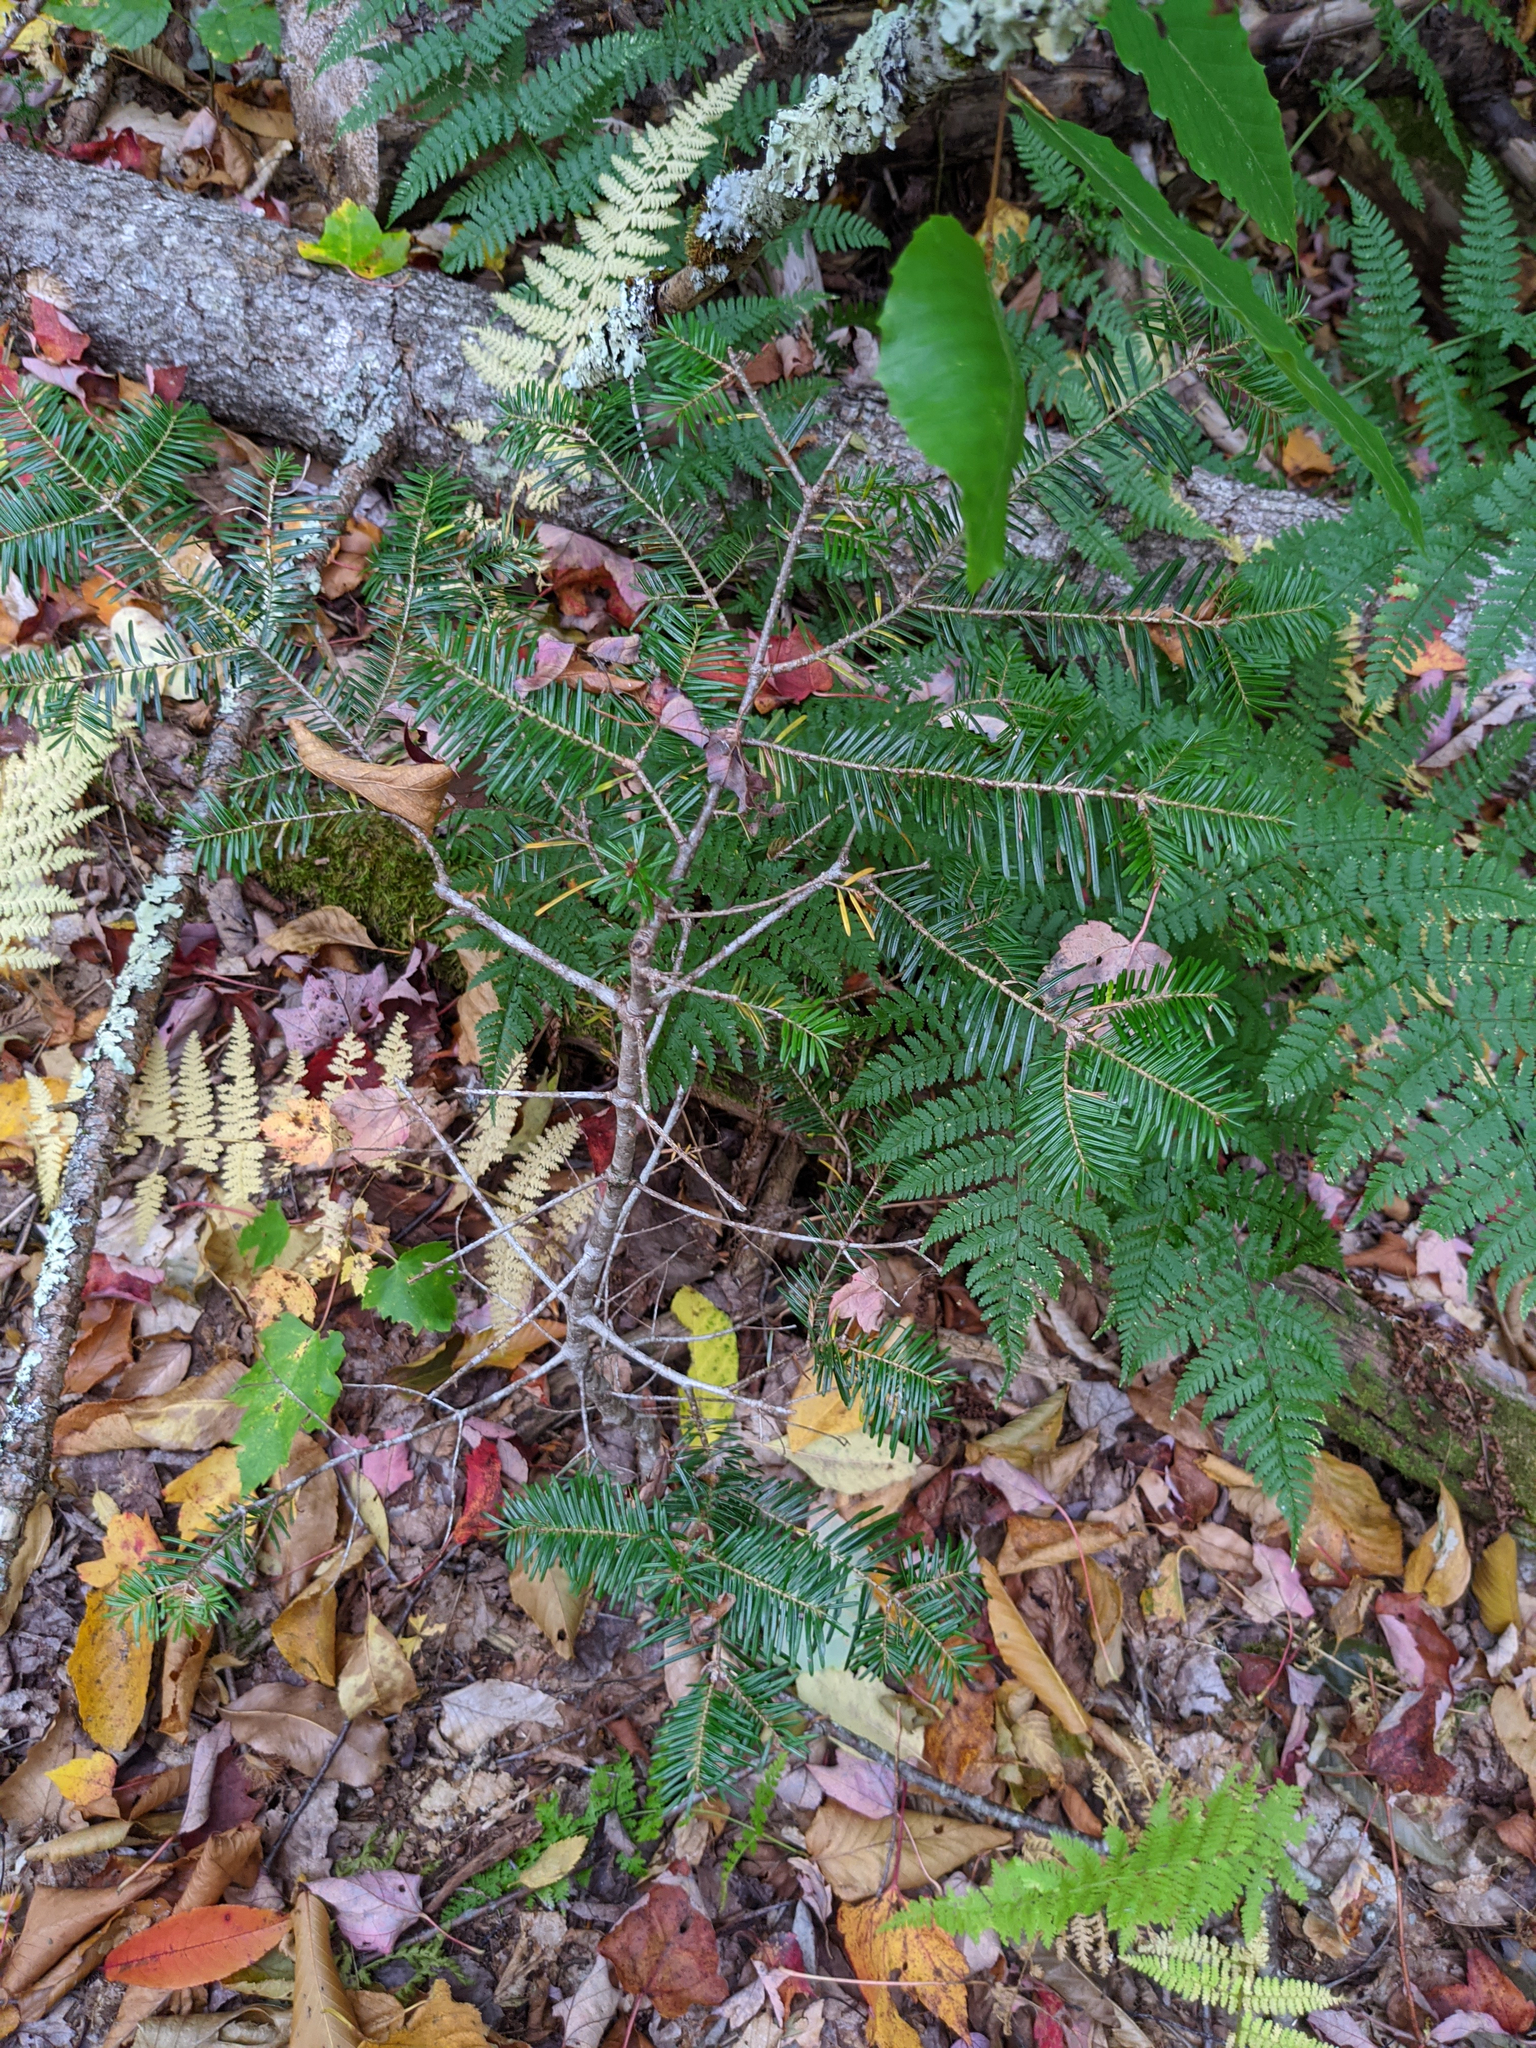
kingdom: Plantae
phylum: Tracheophyta
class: Pinopsida
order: Pinales
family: Pinaceae
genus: Abies
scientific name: Abies balsamea
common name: Balsam fir
